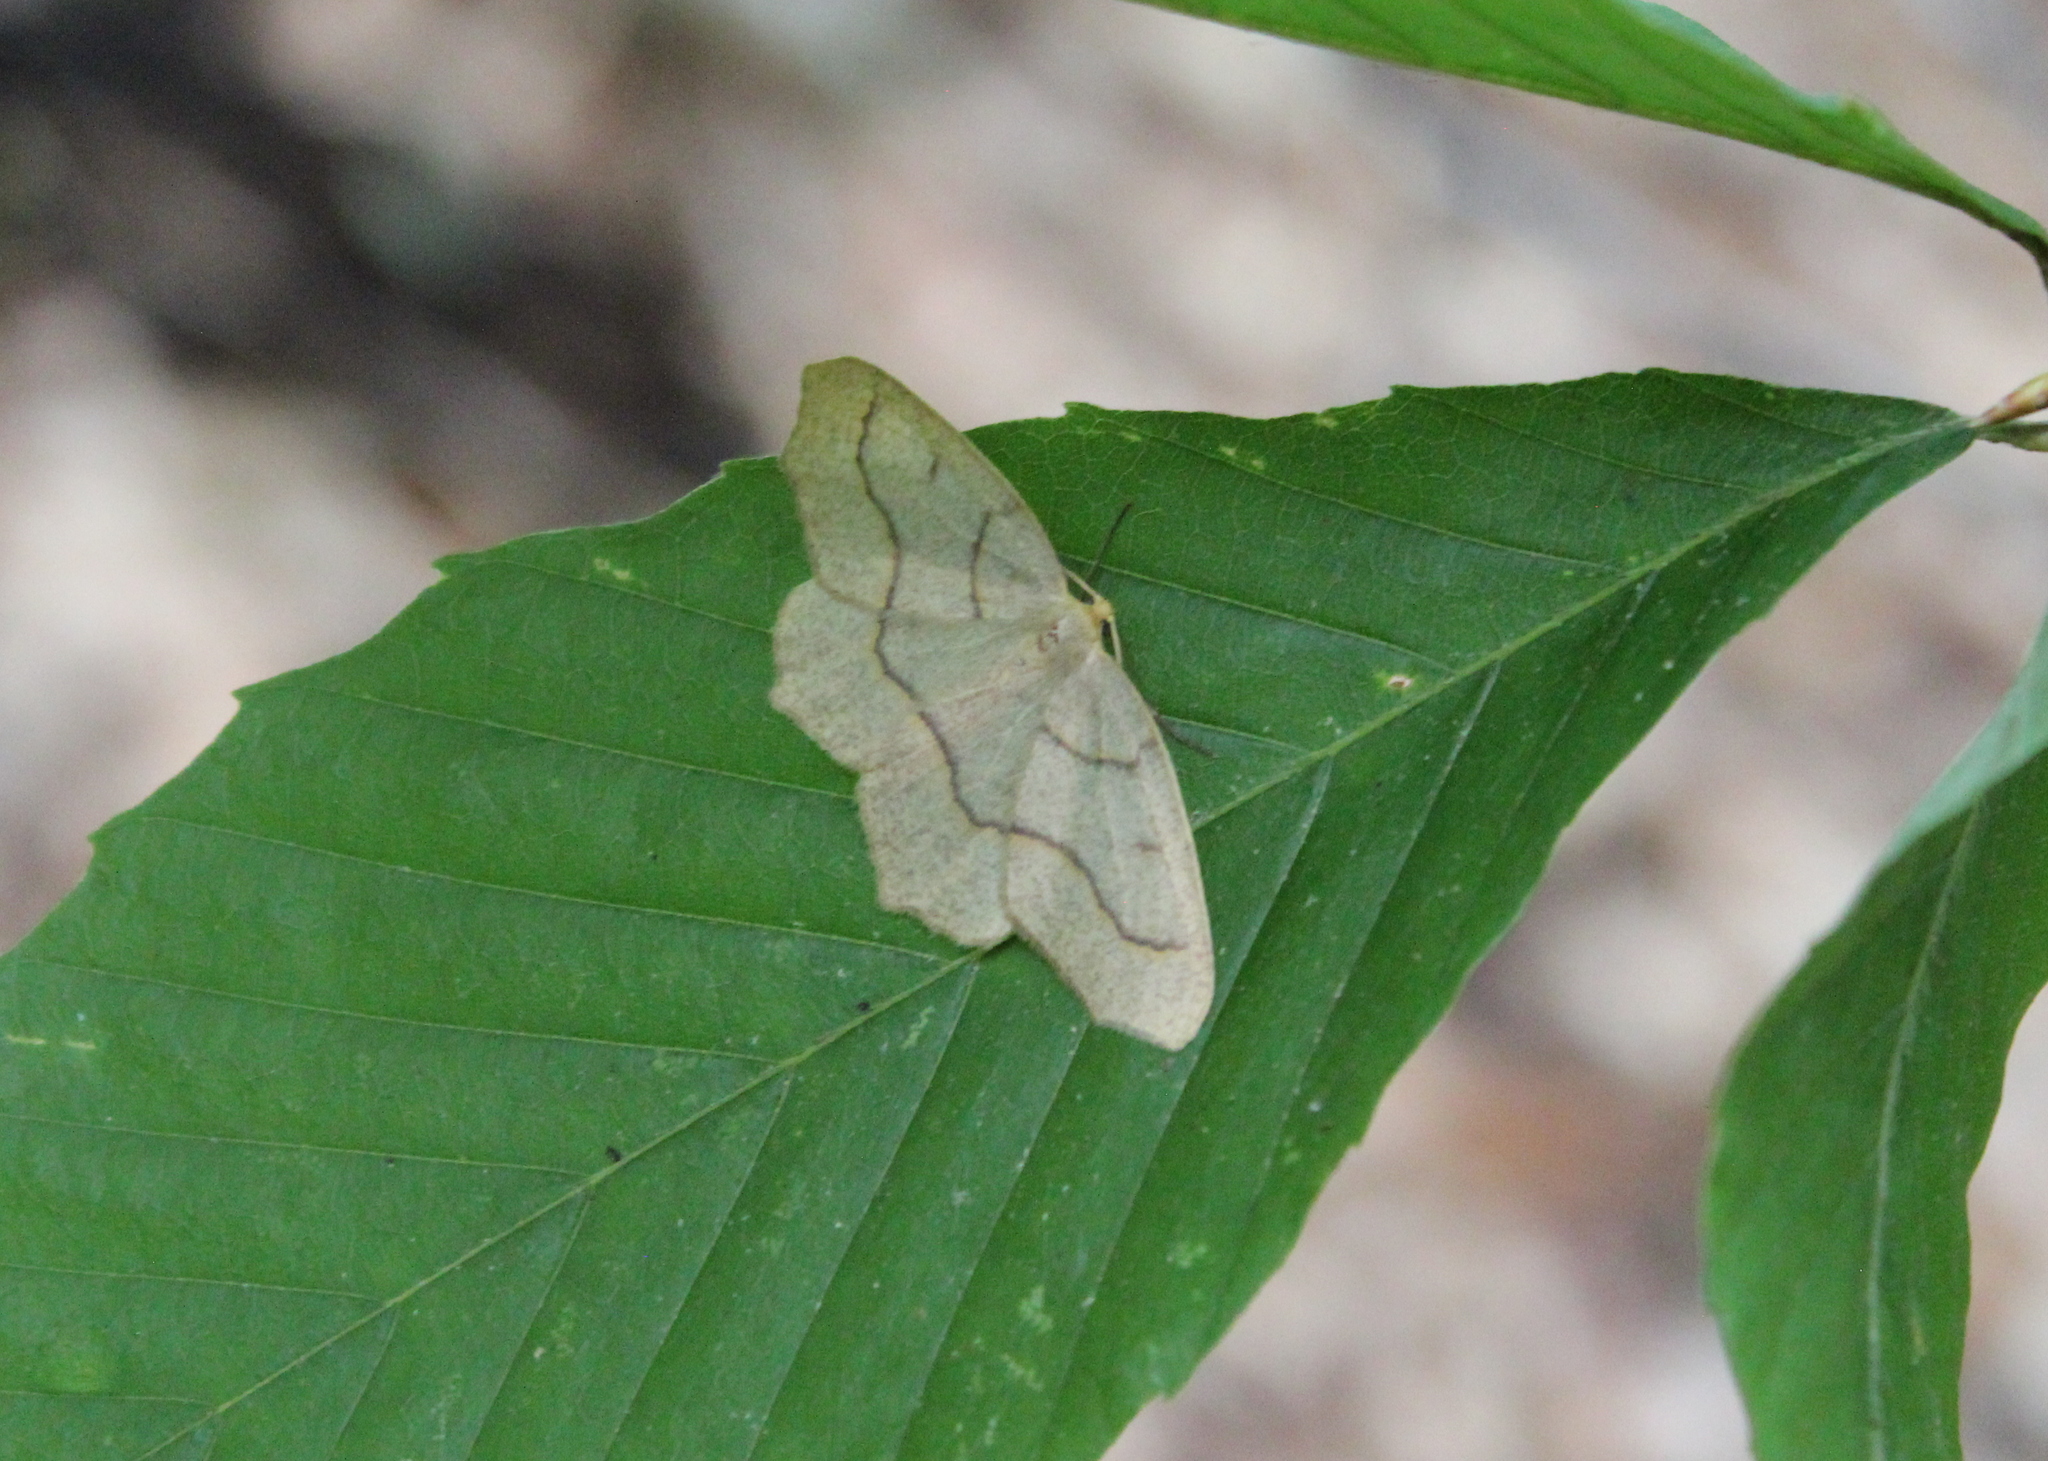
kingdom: Animalia
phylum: Arthropoda
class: Insecta
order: Lepidoptera
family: Geometridae
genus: Lambdina
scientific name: Lambdina fiscellaria
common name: Hemlock looper
